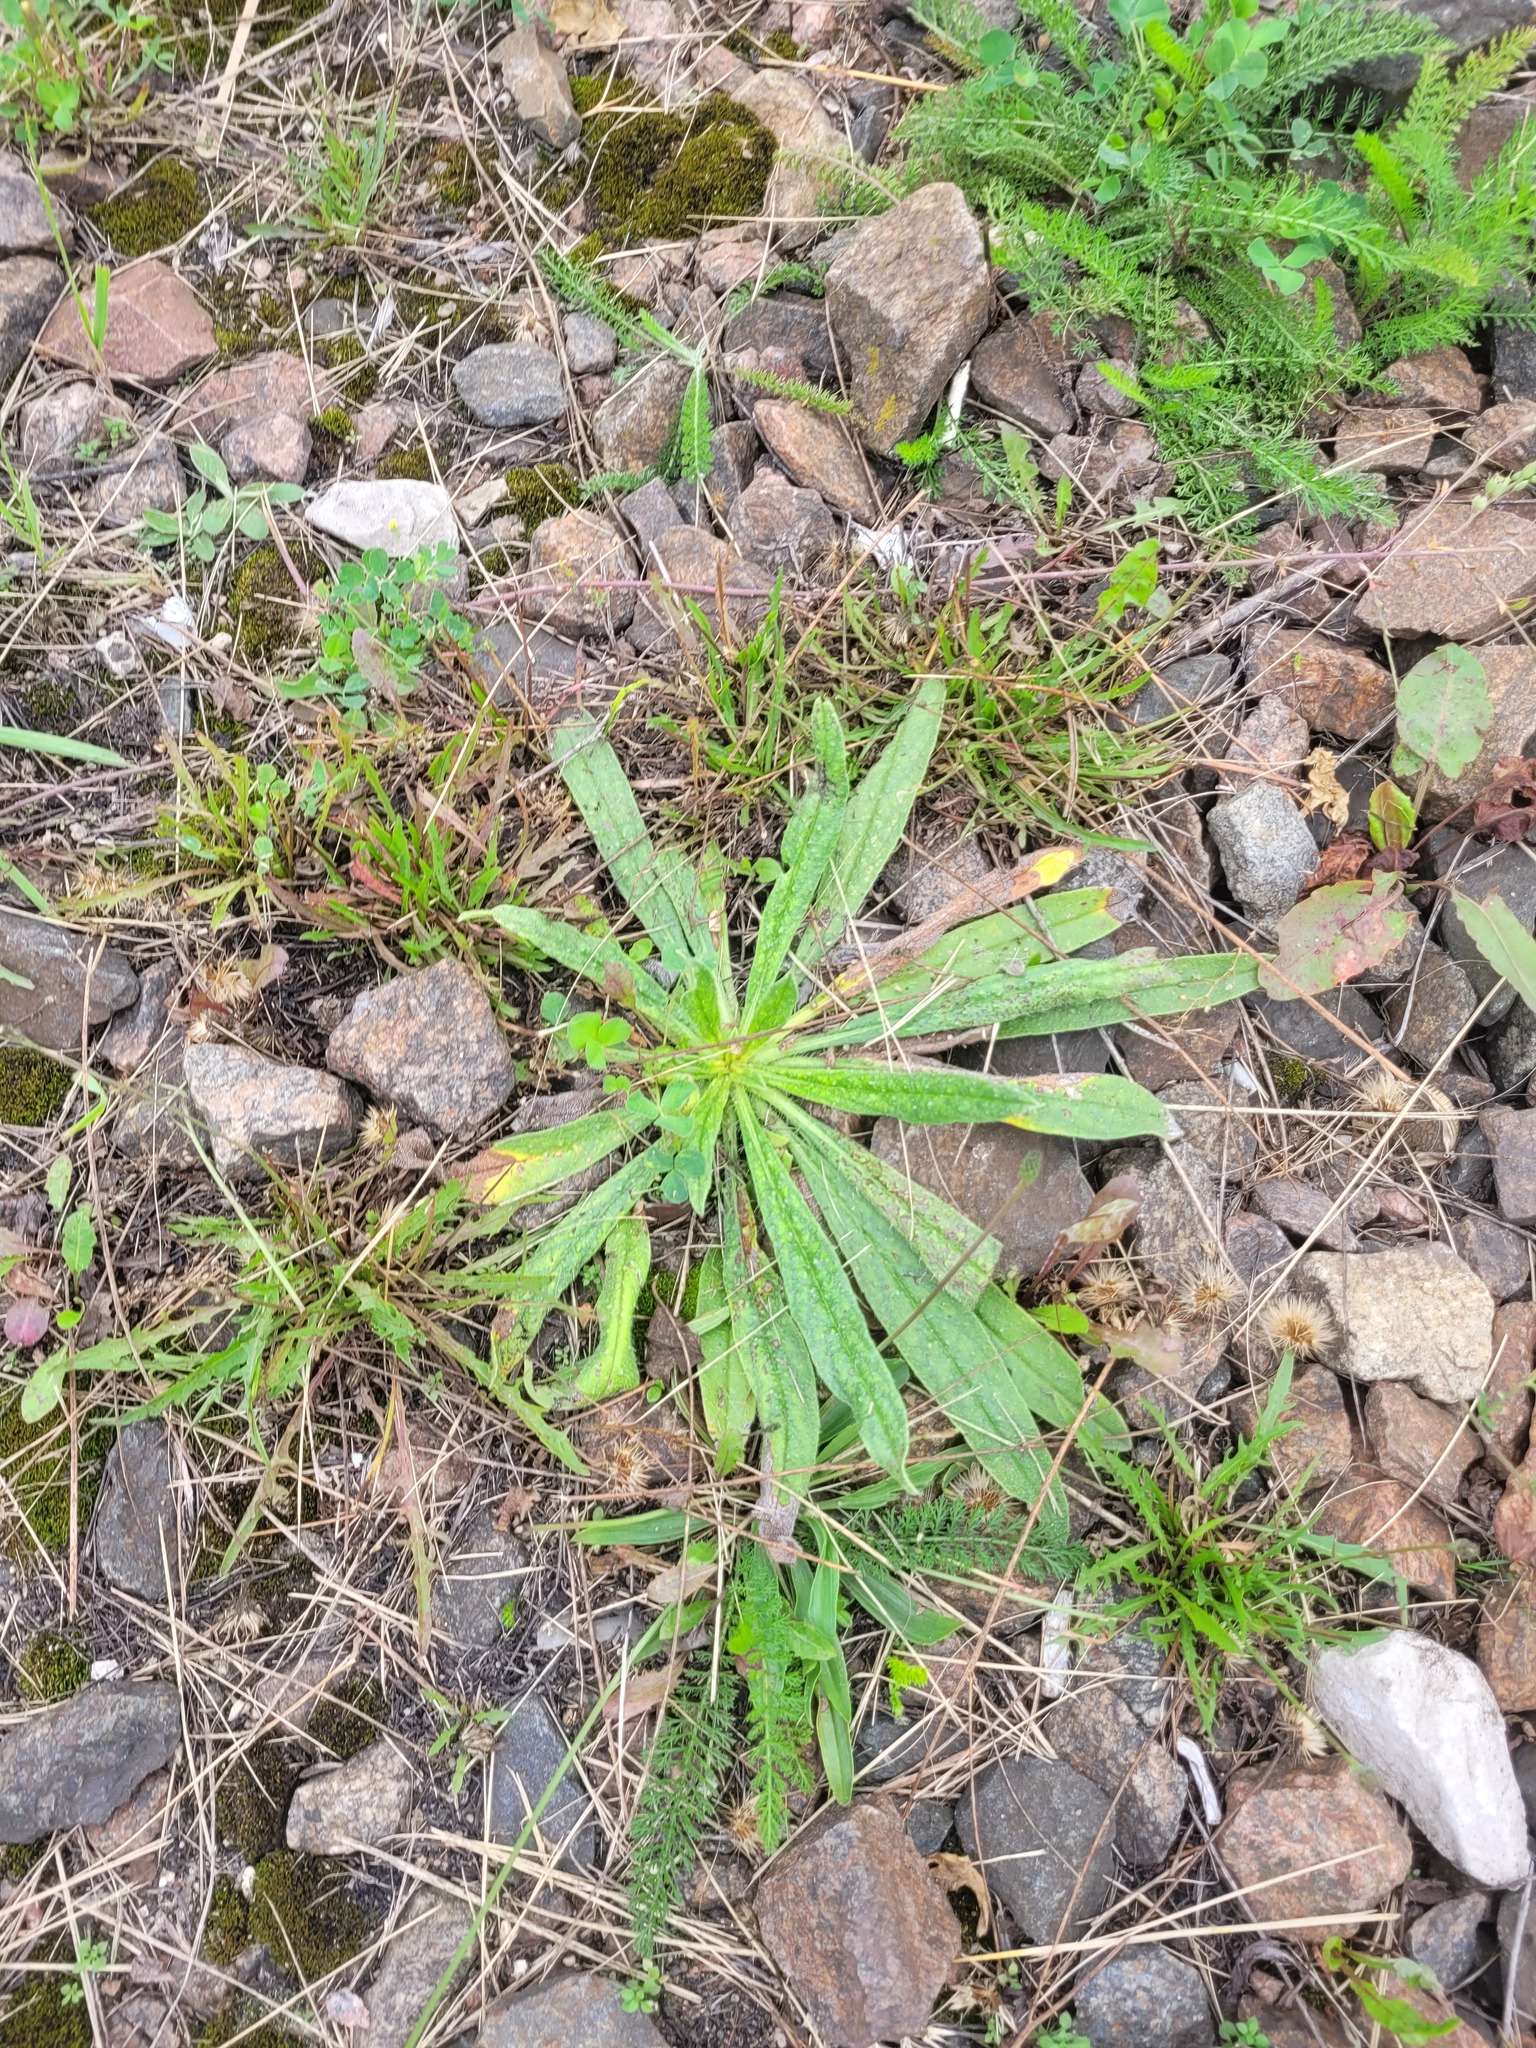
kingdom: Plantae
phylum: Tracheophyta
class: Magnoliopsida
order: Boraginales
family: Boraginaceae
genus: Echium
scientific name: Echium vulgare
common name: Common viper's bugloss
